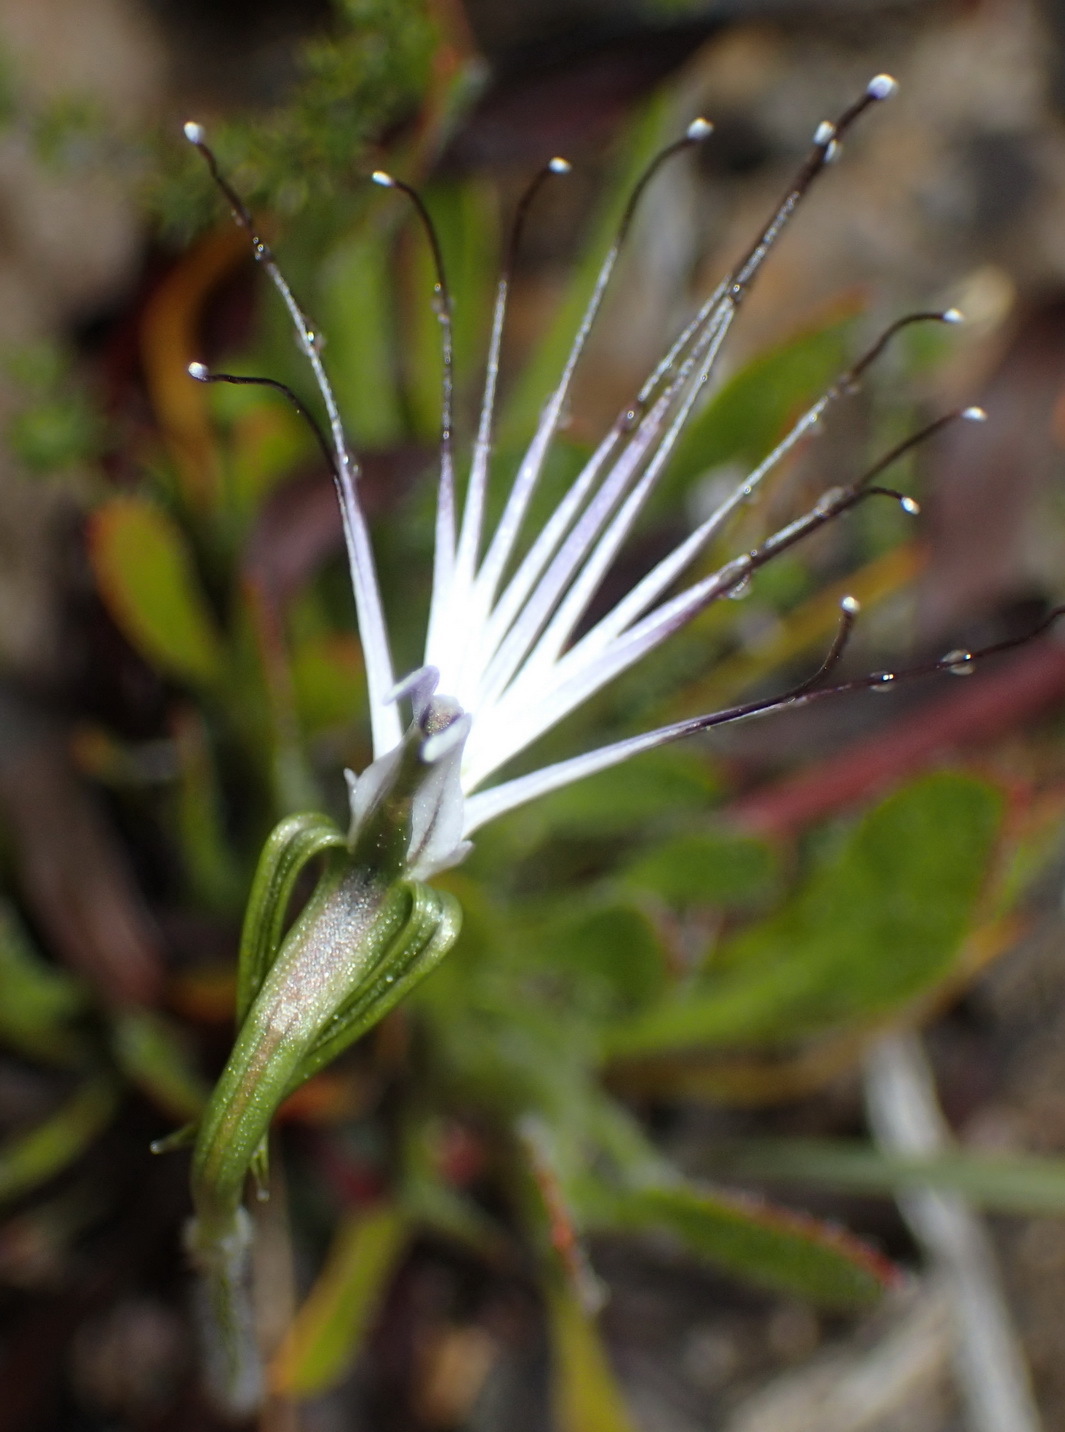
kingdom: Plantae
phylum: Tracheophyta
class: Liliopsida
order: Asparagales
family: Orchidaceae
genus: Holothrix
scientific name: Holothrix etheliae
